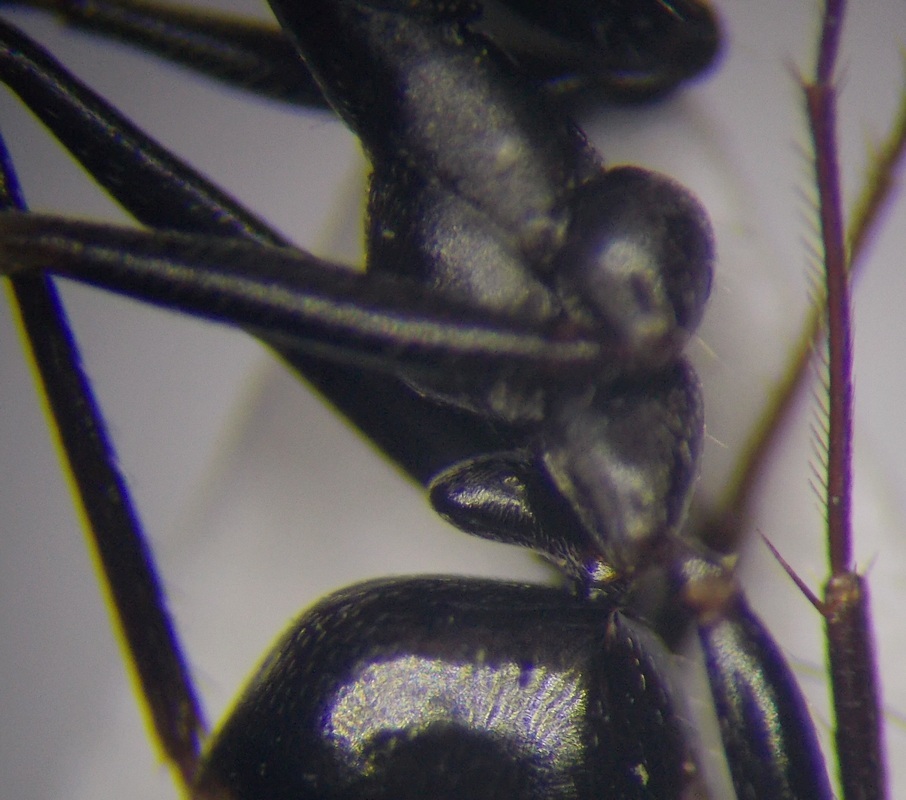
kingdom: Animalia
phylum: Arthropoda
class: Insecta
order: Hymenoptera
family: Formicidae
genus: Cataglyphis
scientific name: Cataglyphis aenescens
